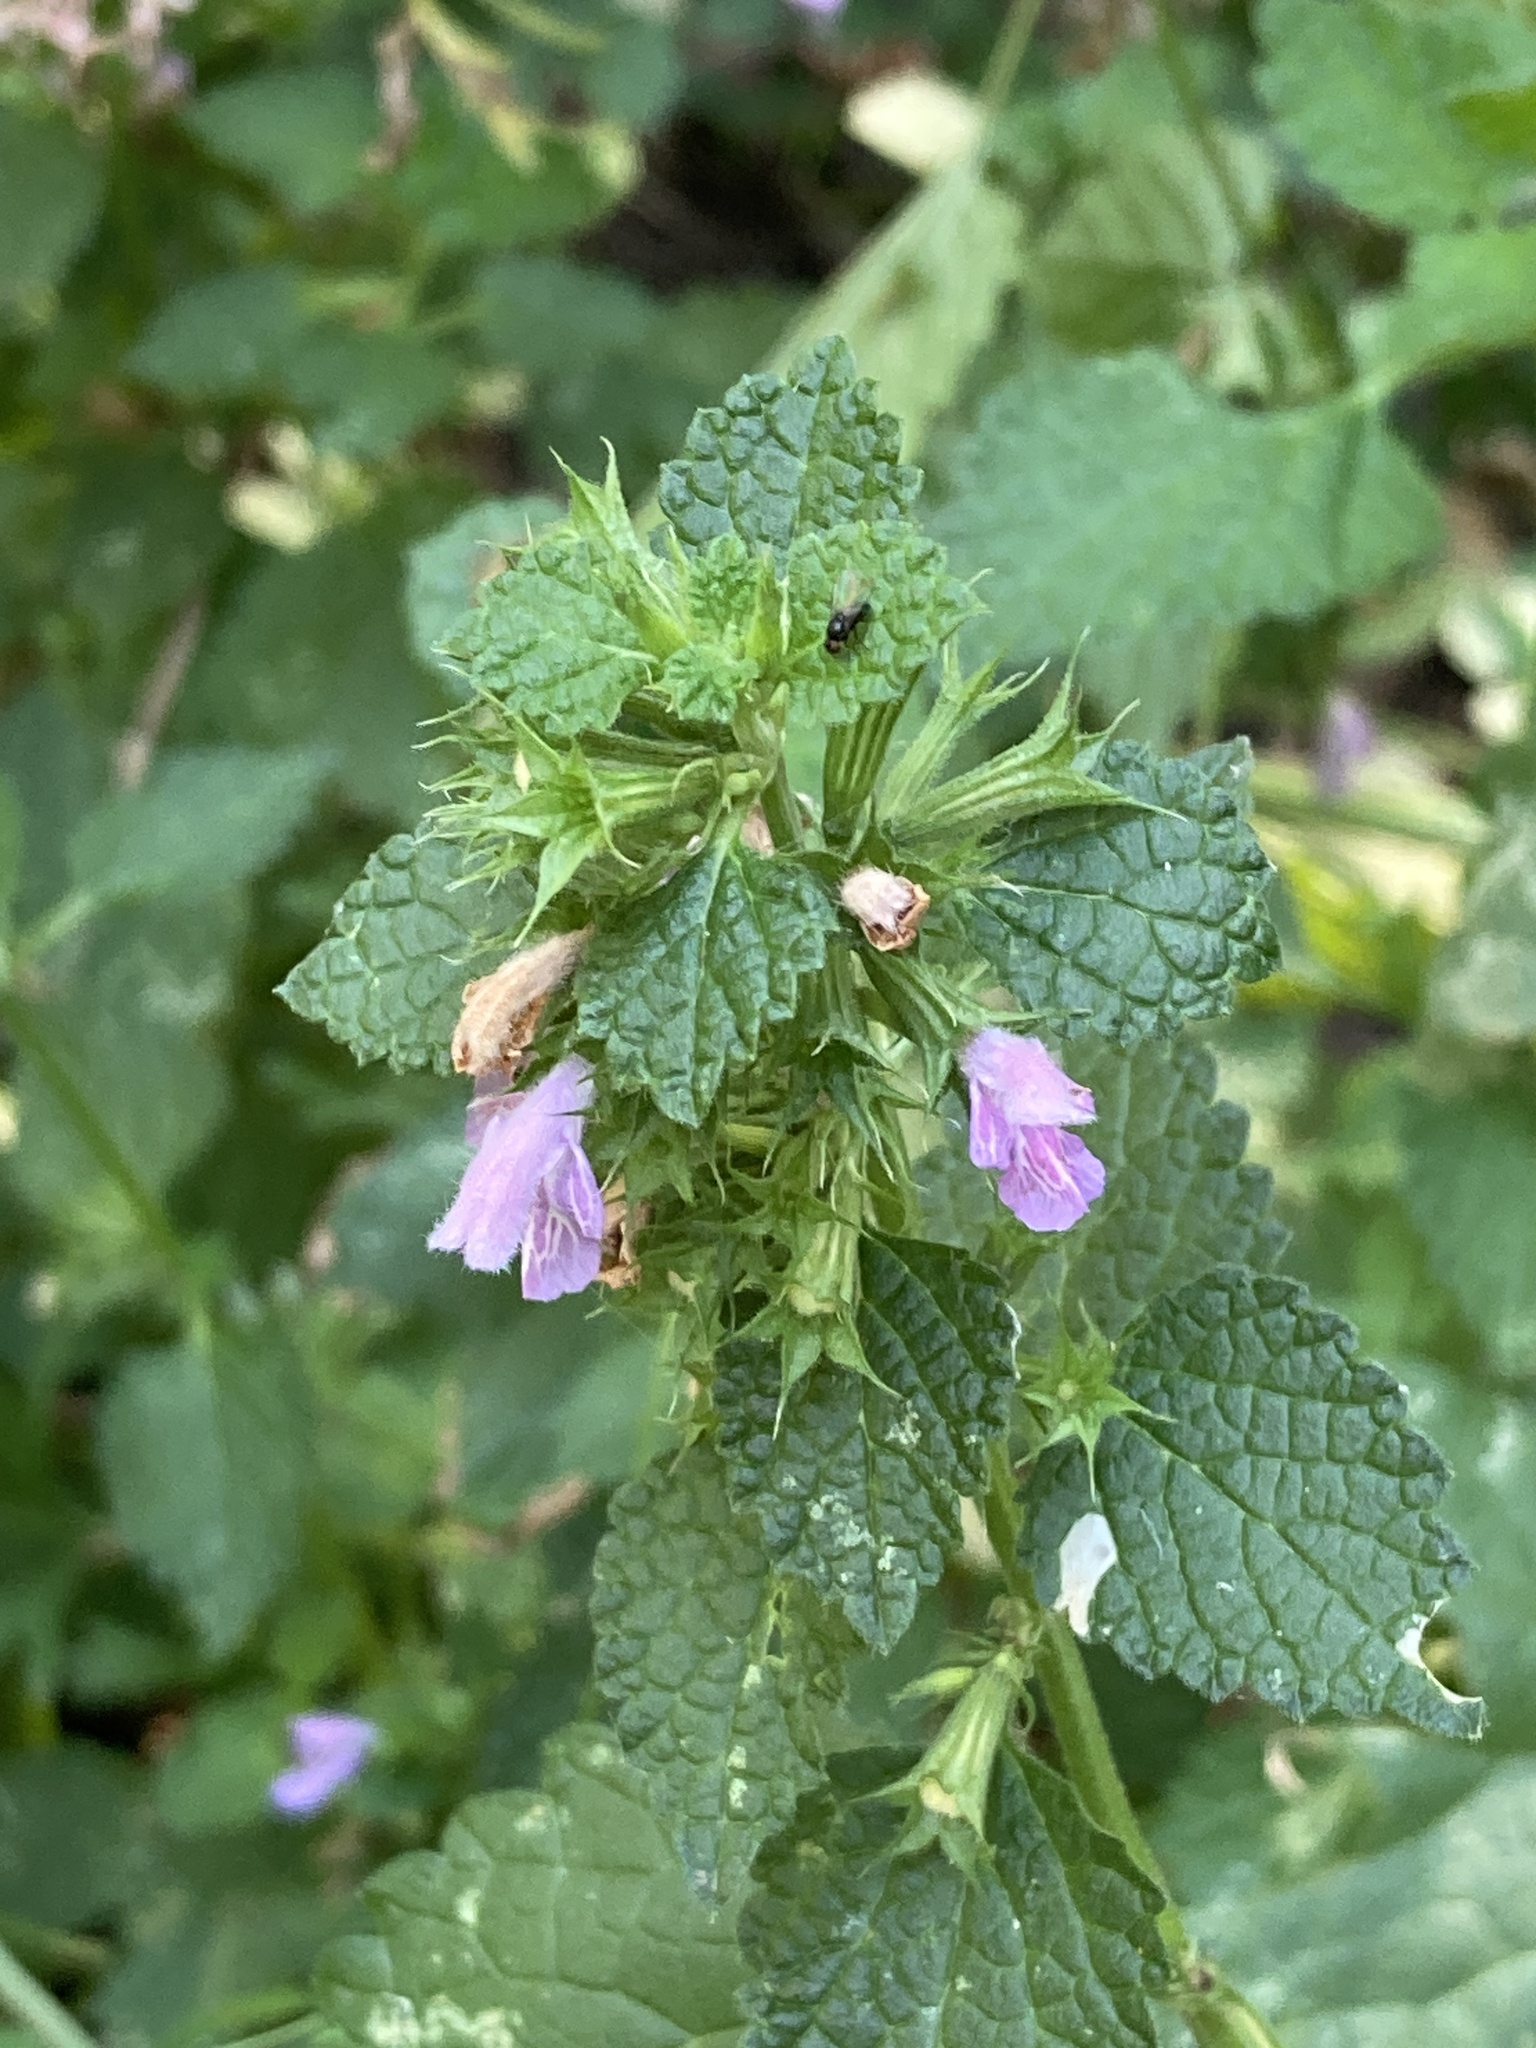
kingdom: Plantae
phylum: Tracheophyta
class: Magnoliopsida
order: Lamiales
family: Lamiaceae
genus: Ballota
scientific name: Ballota nigra
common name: Black horehound
